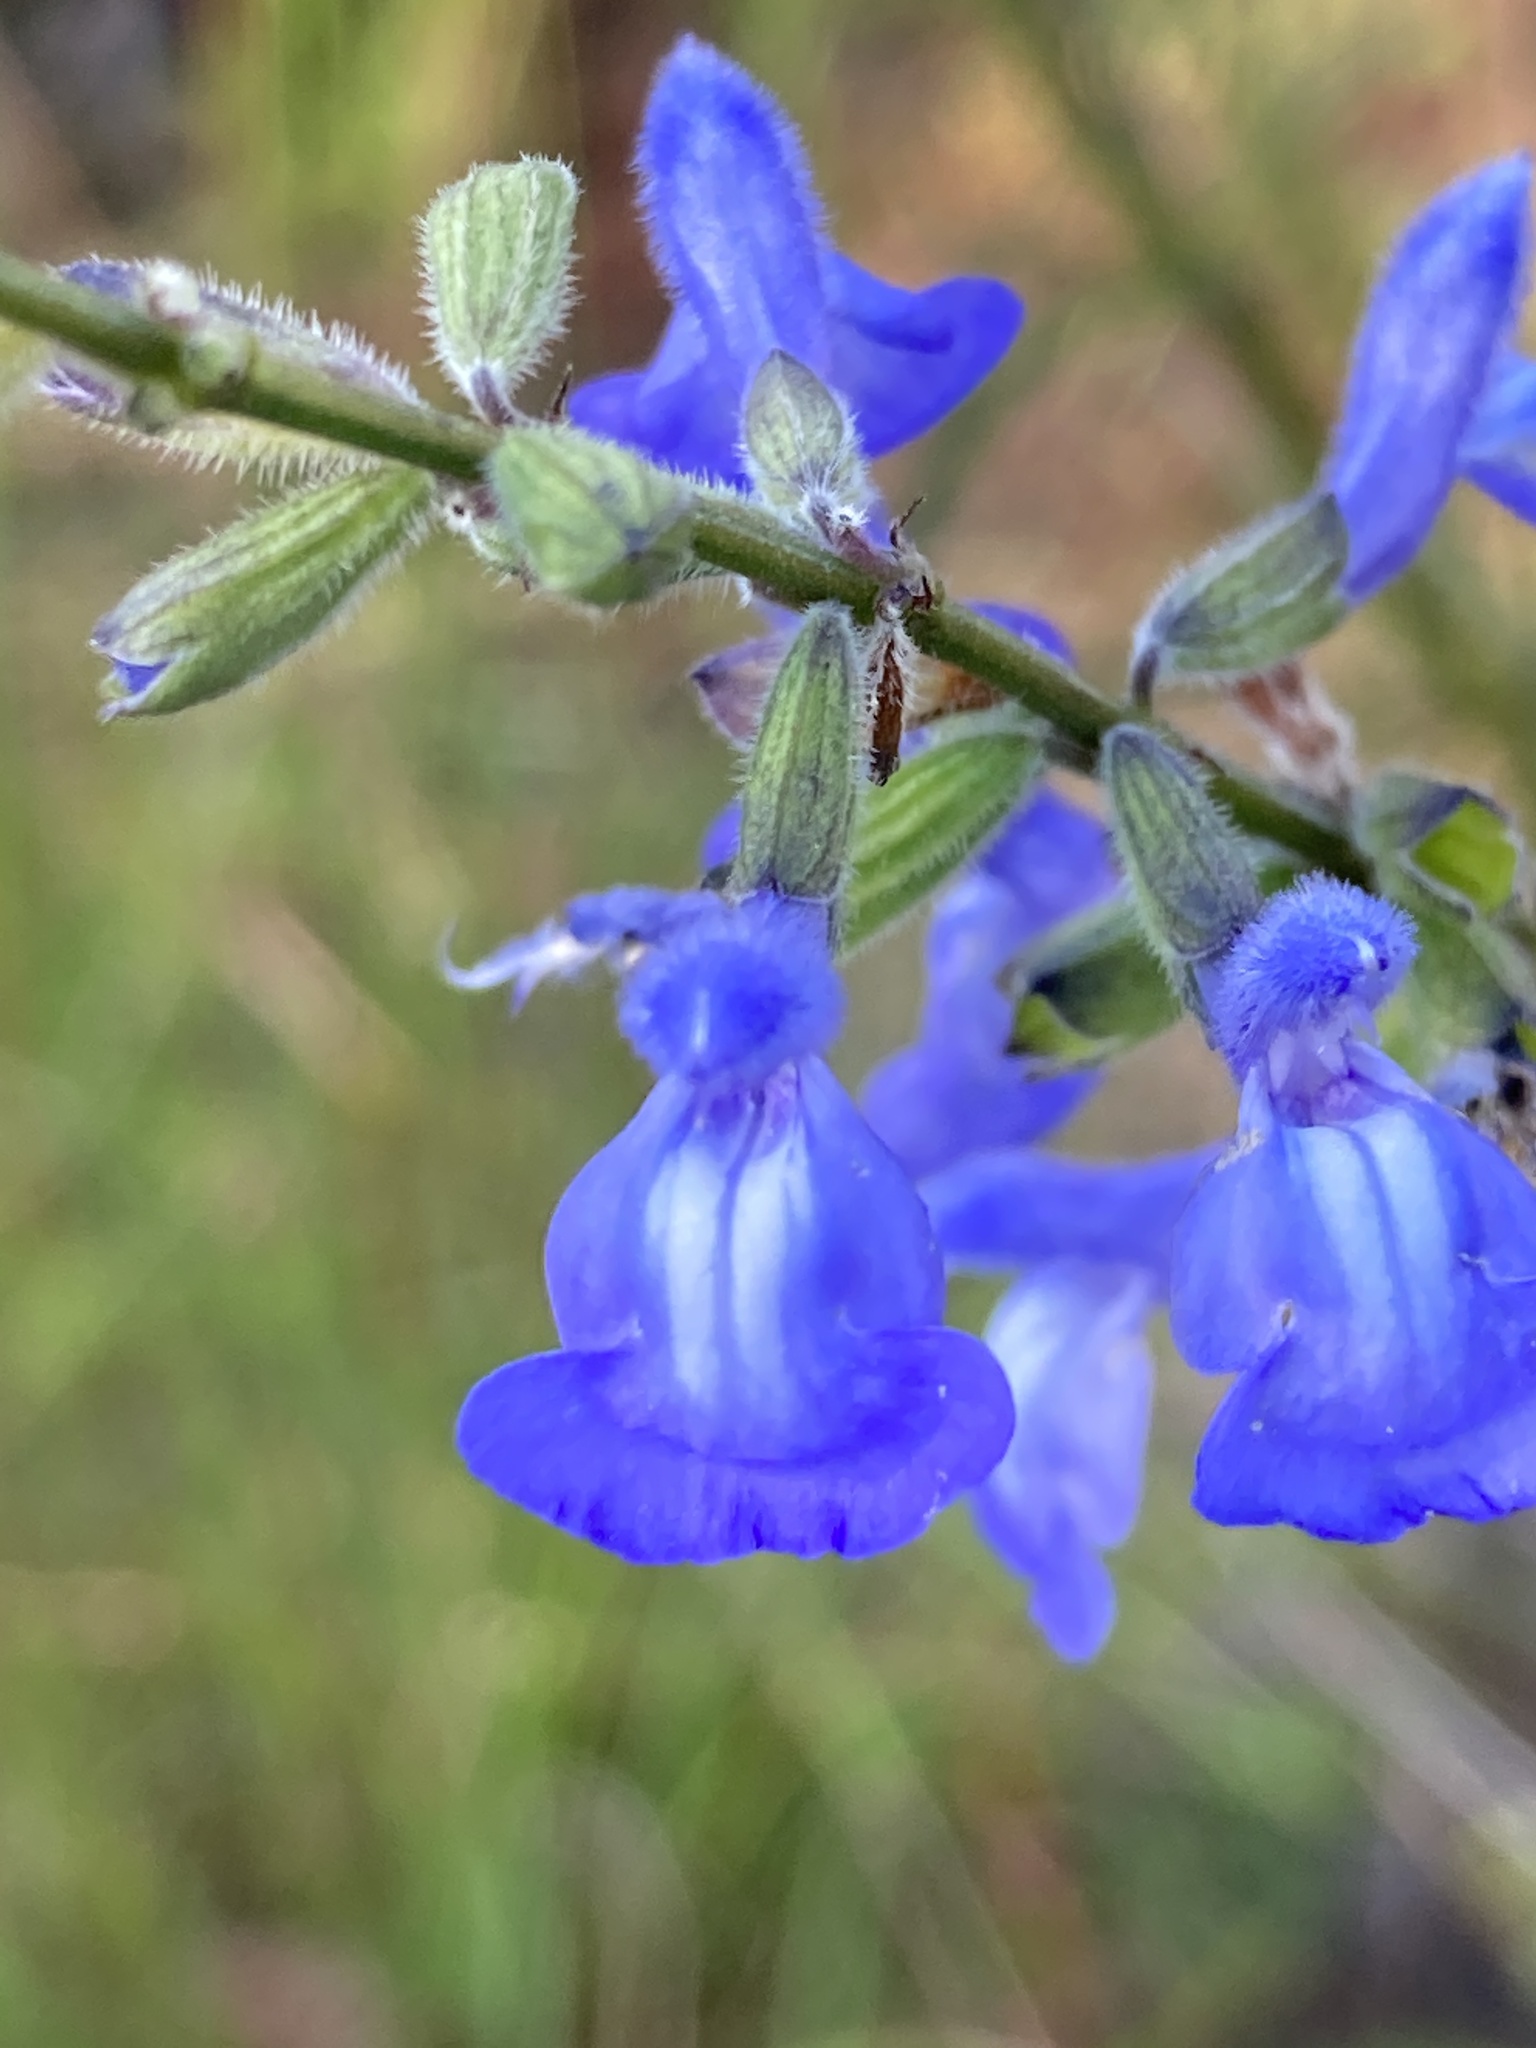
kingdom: Plantae
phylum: Tracheophyta
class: Magnoliopsida
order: Lamiales
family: Lamiaceae
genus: Salvia
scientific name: Salvia azurea
